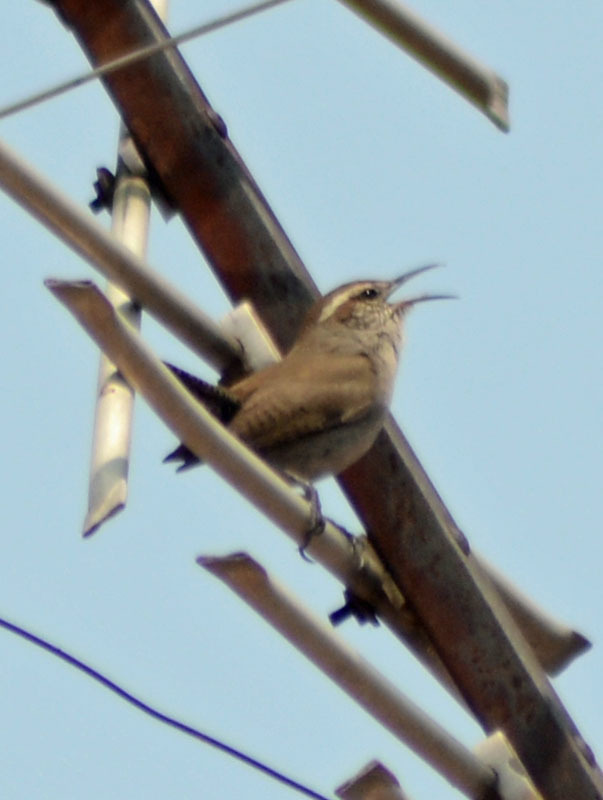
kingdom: Animalia
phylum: Chordata
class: Aves
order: Passeriformes
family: Troglodytidae
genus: Thryomanes
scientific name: Thryomanes bewickii
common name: Bewick's wren
